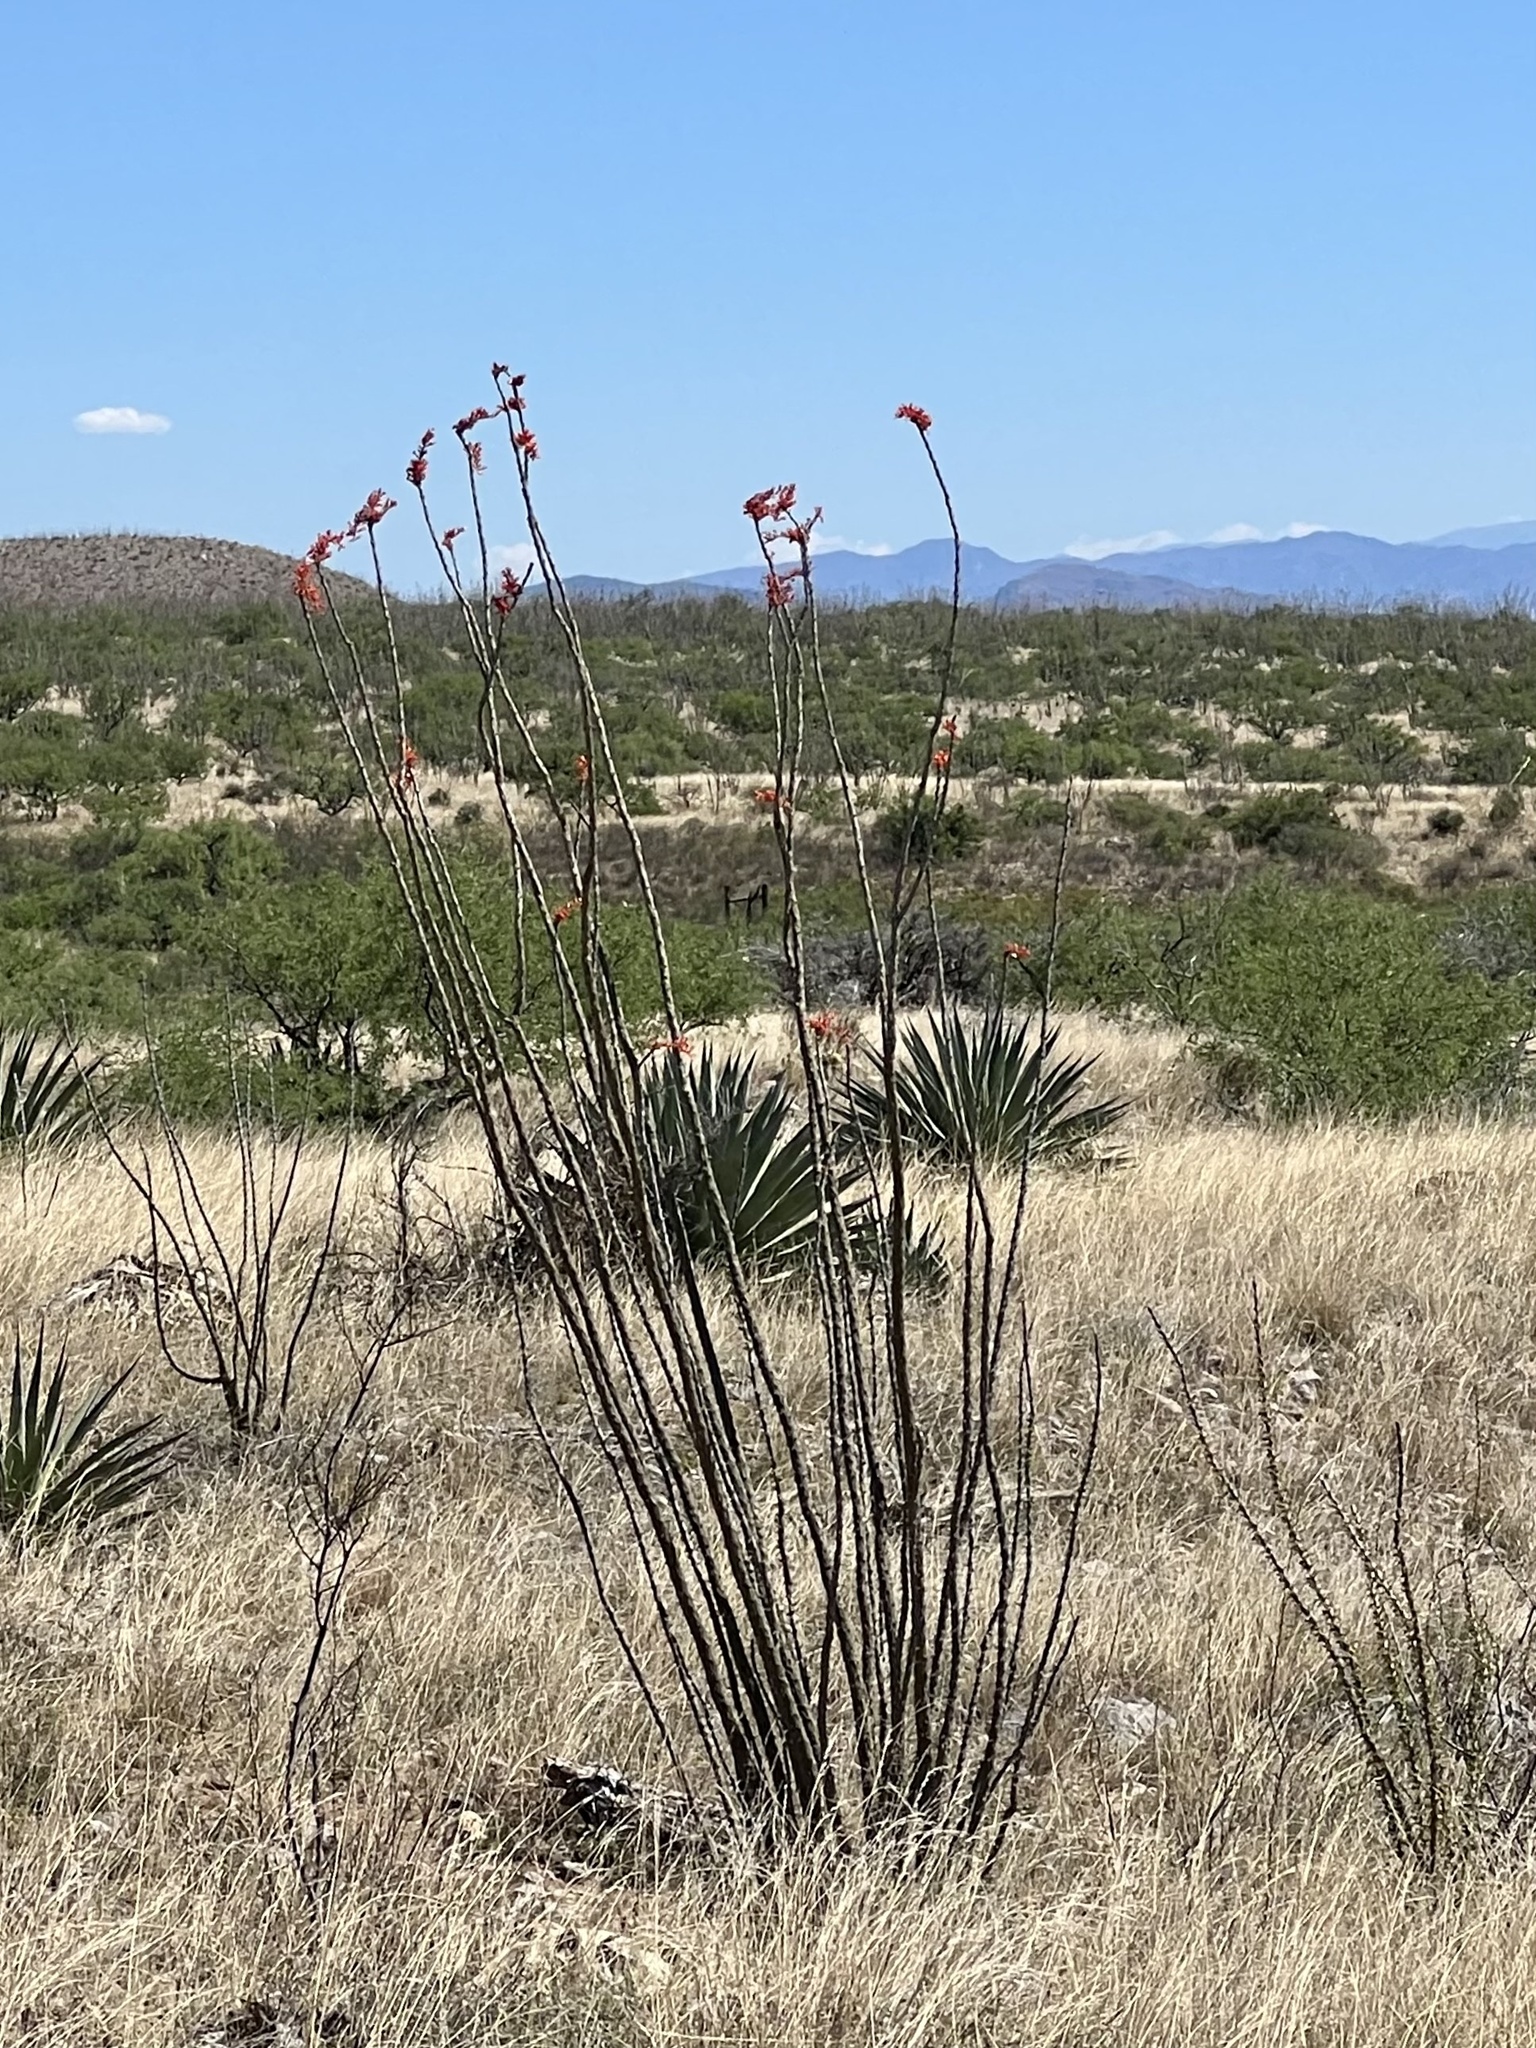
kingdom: Plantae
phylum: Tracheophyta
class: Magnoliopsida
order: Ericales
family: Fouquieriaceae
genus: Fouquieria
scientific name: Fouquieria splendens
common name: Vine-cactus
